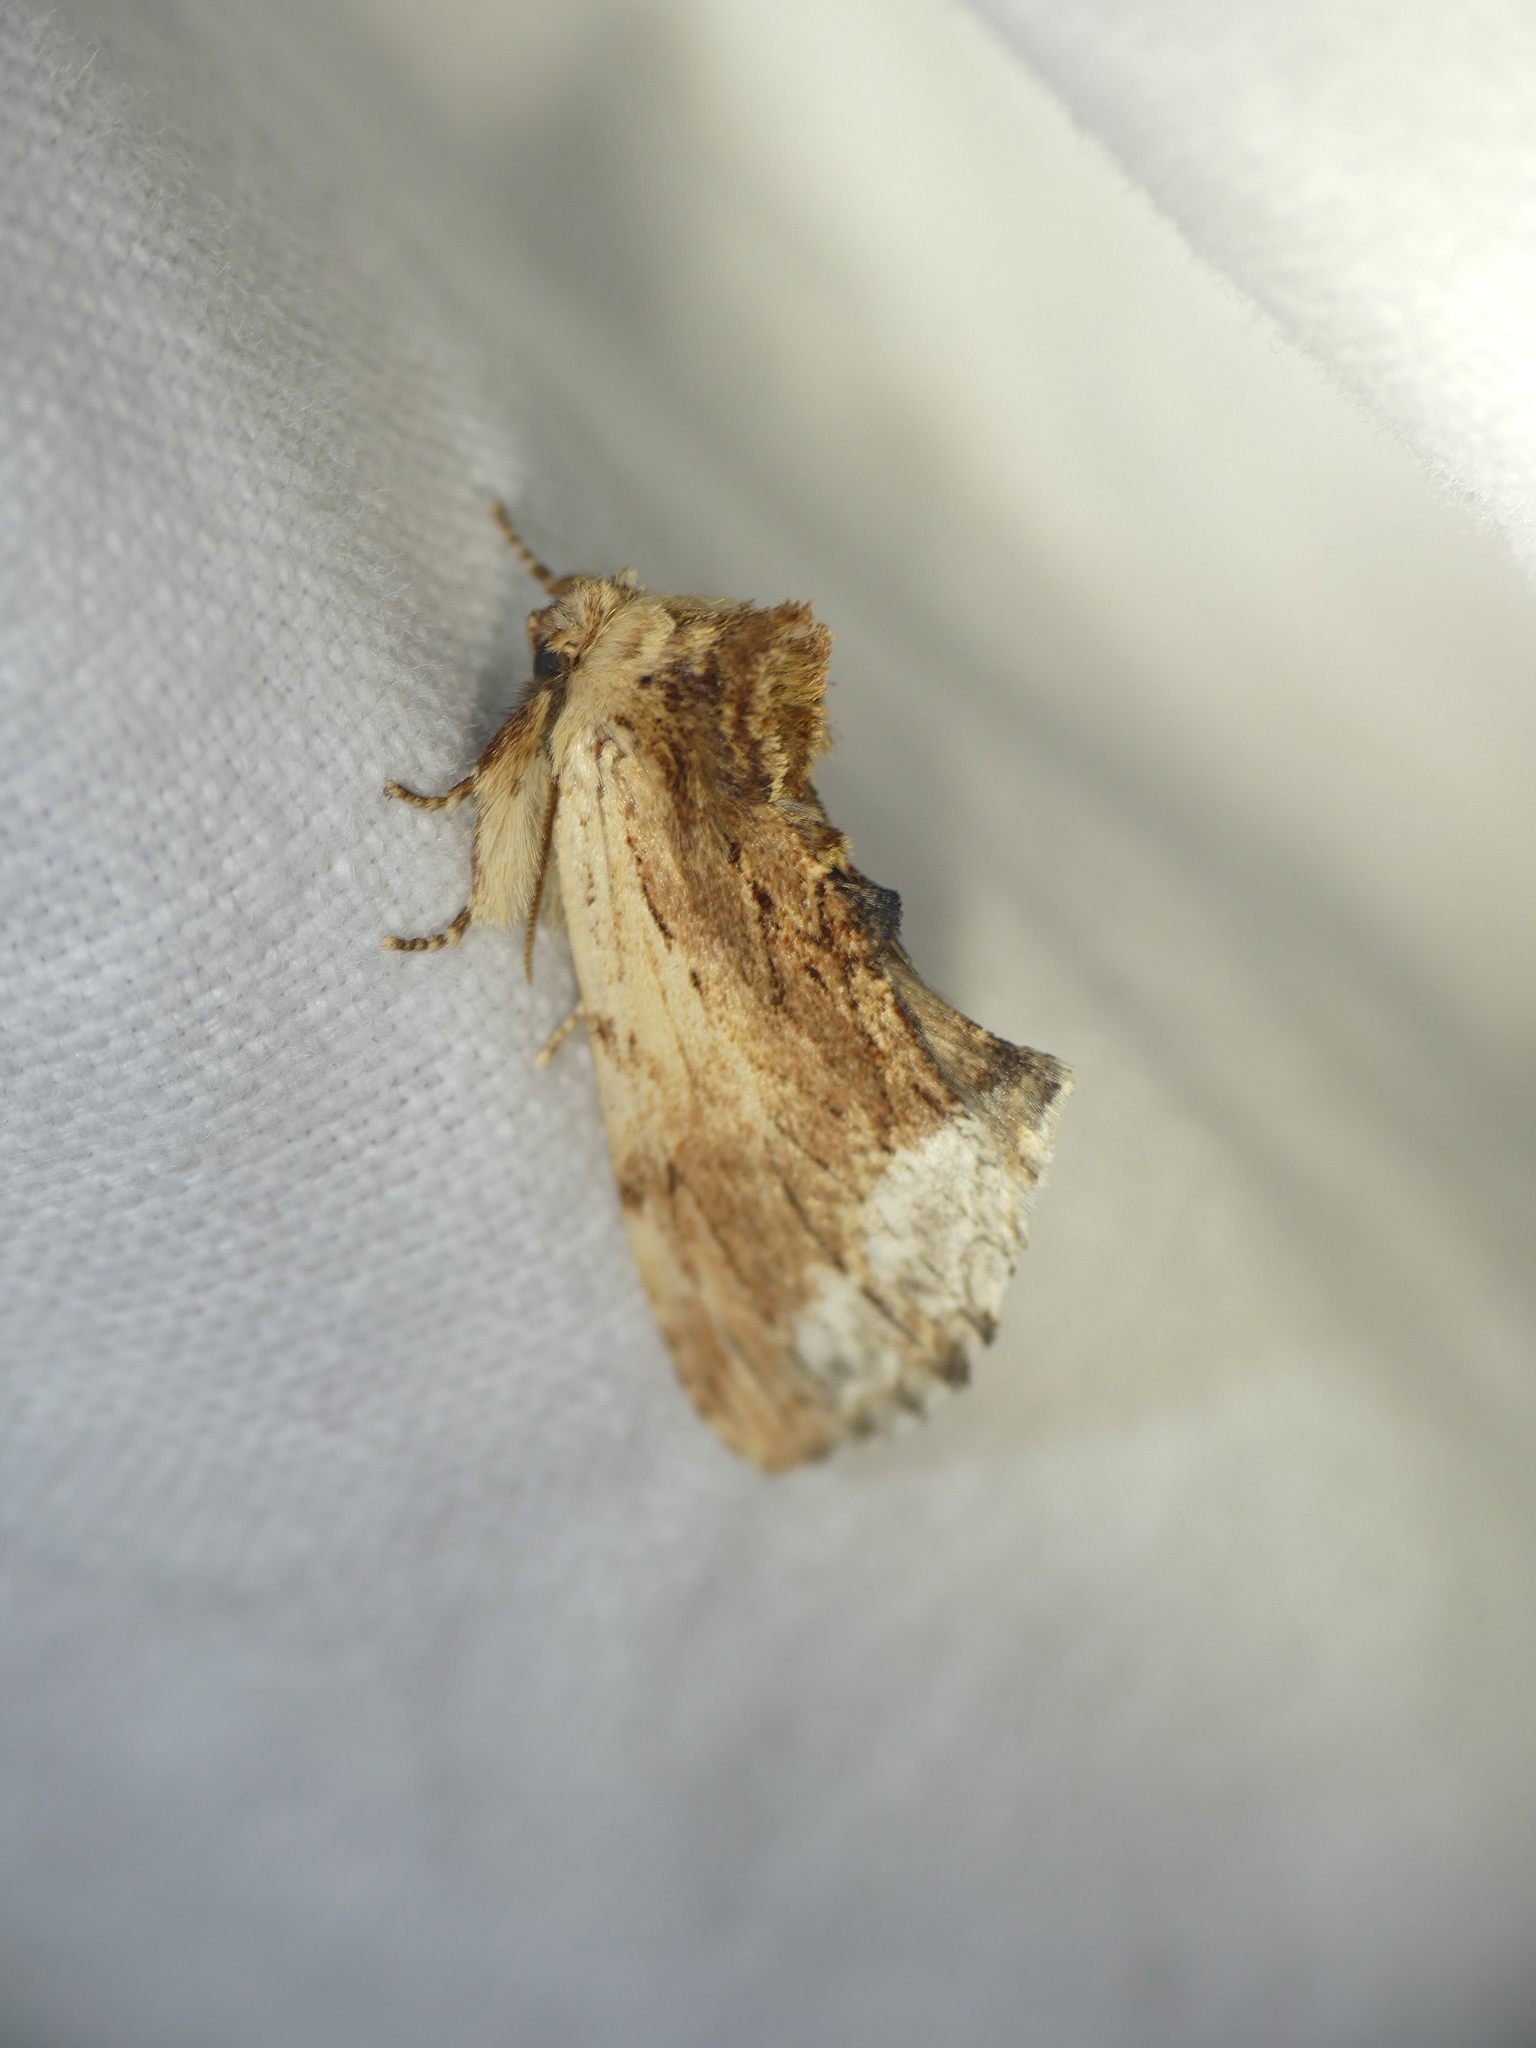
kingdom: Animalia
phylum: Arthropoda
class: Insecta
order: Lepidoptera
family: Notodontidae
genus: Ptilodon
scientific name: Ptilodon cucullina
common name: Maple prominent
